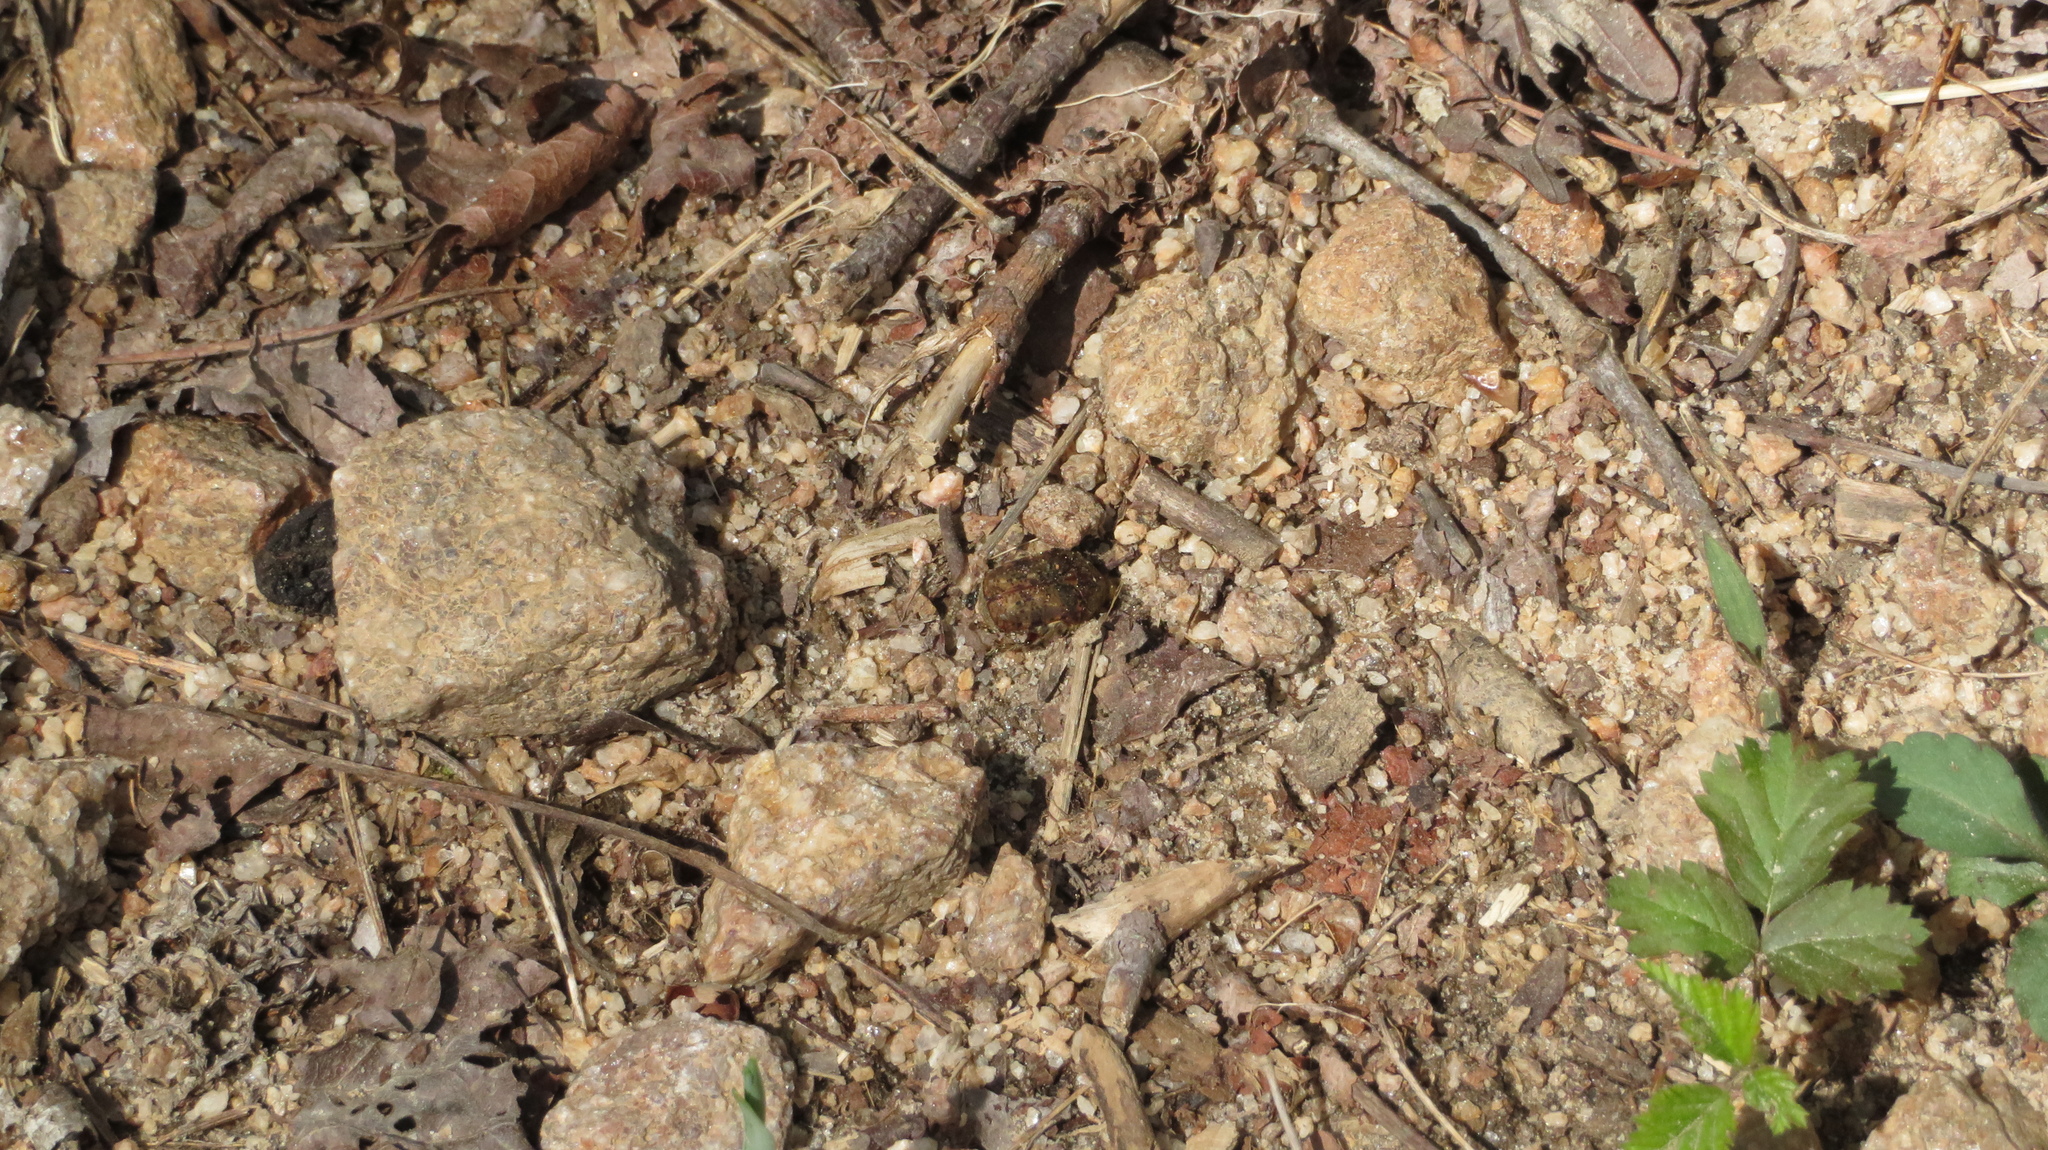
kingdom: Animalia
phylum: Arthropoda
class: Insecta
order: Coleoptera
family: Scarabaeidae
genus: Euphoria
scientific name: Euphoria inda
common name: Bumble flower beetle
